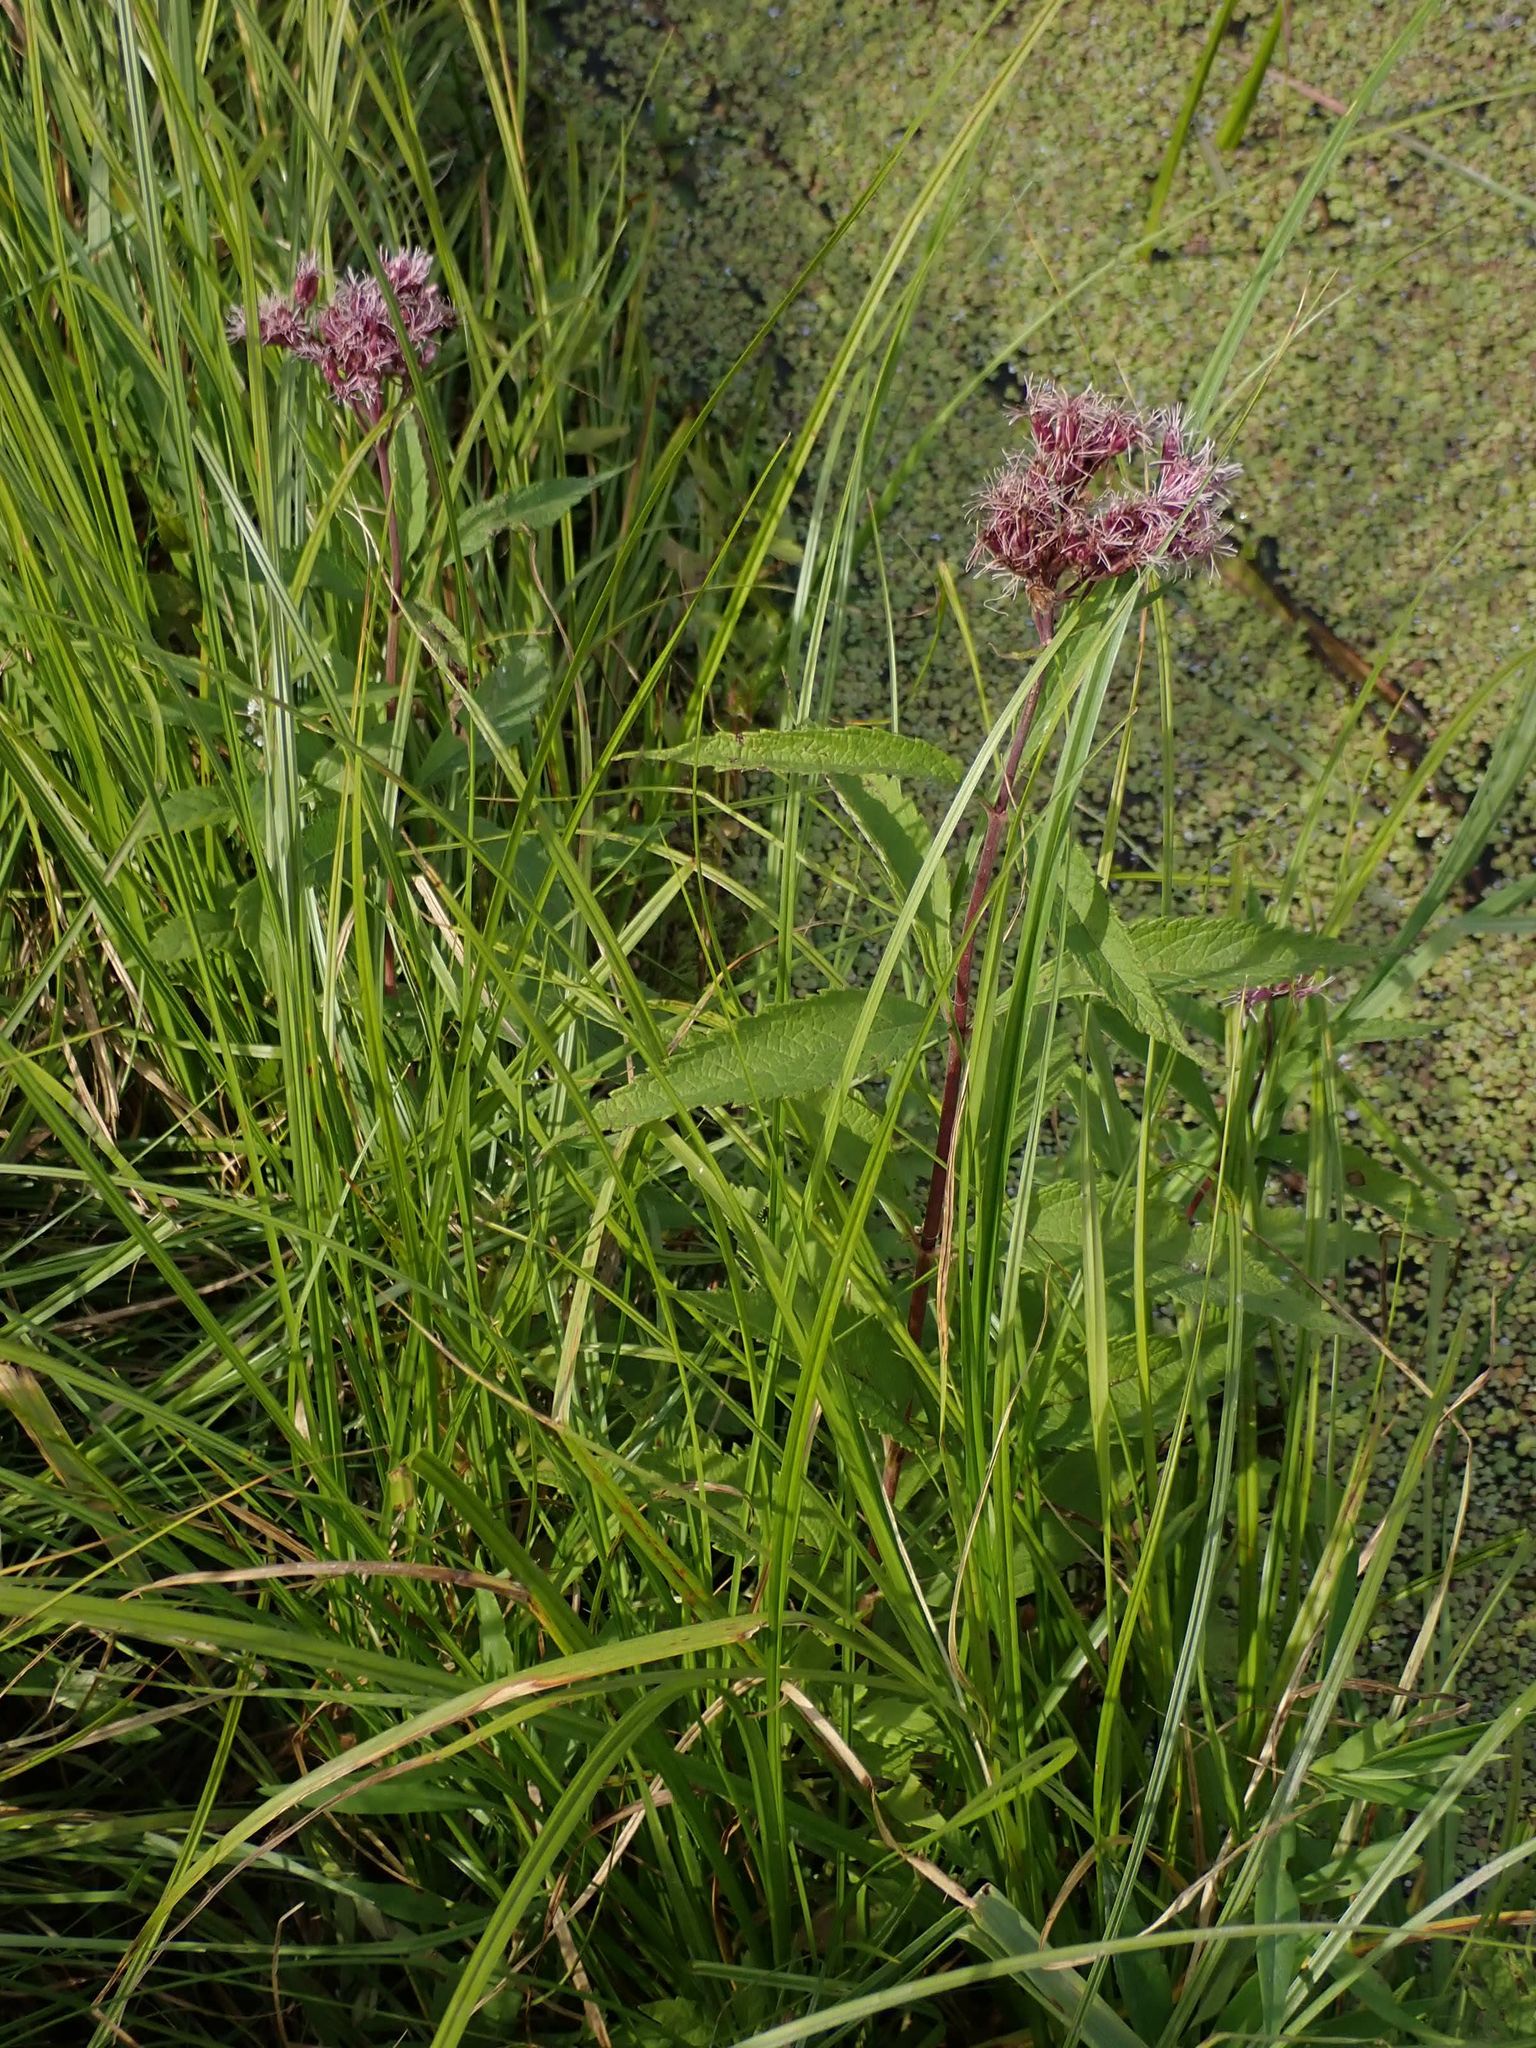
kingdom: Plantae
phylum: Tracheophyta
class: Magnoliopsida
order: Asterales
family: Asteraceae
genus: Eutrochium
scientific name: Eutrochium maculatum
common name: Spotted joe pye weed
